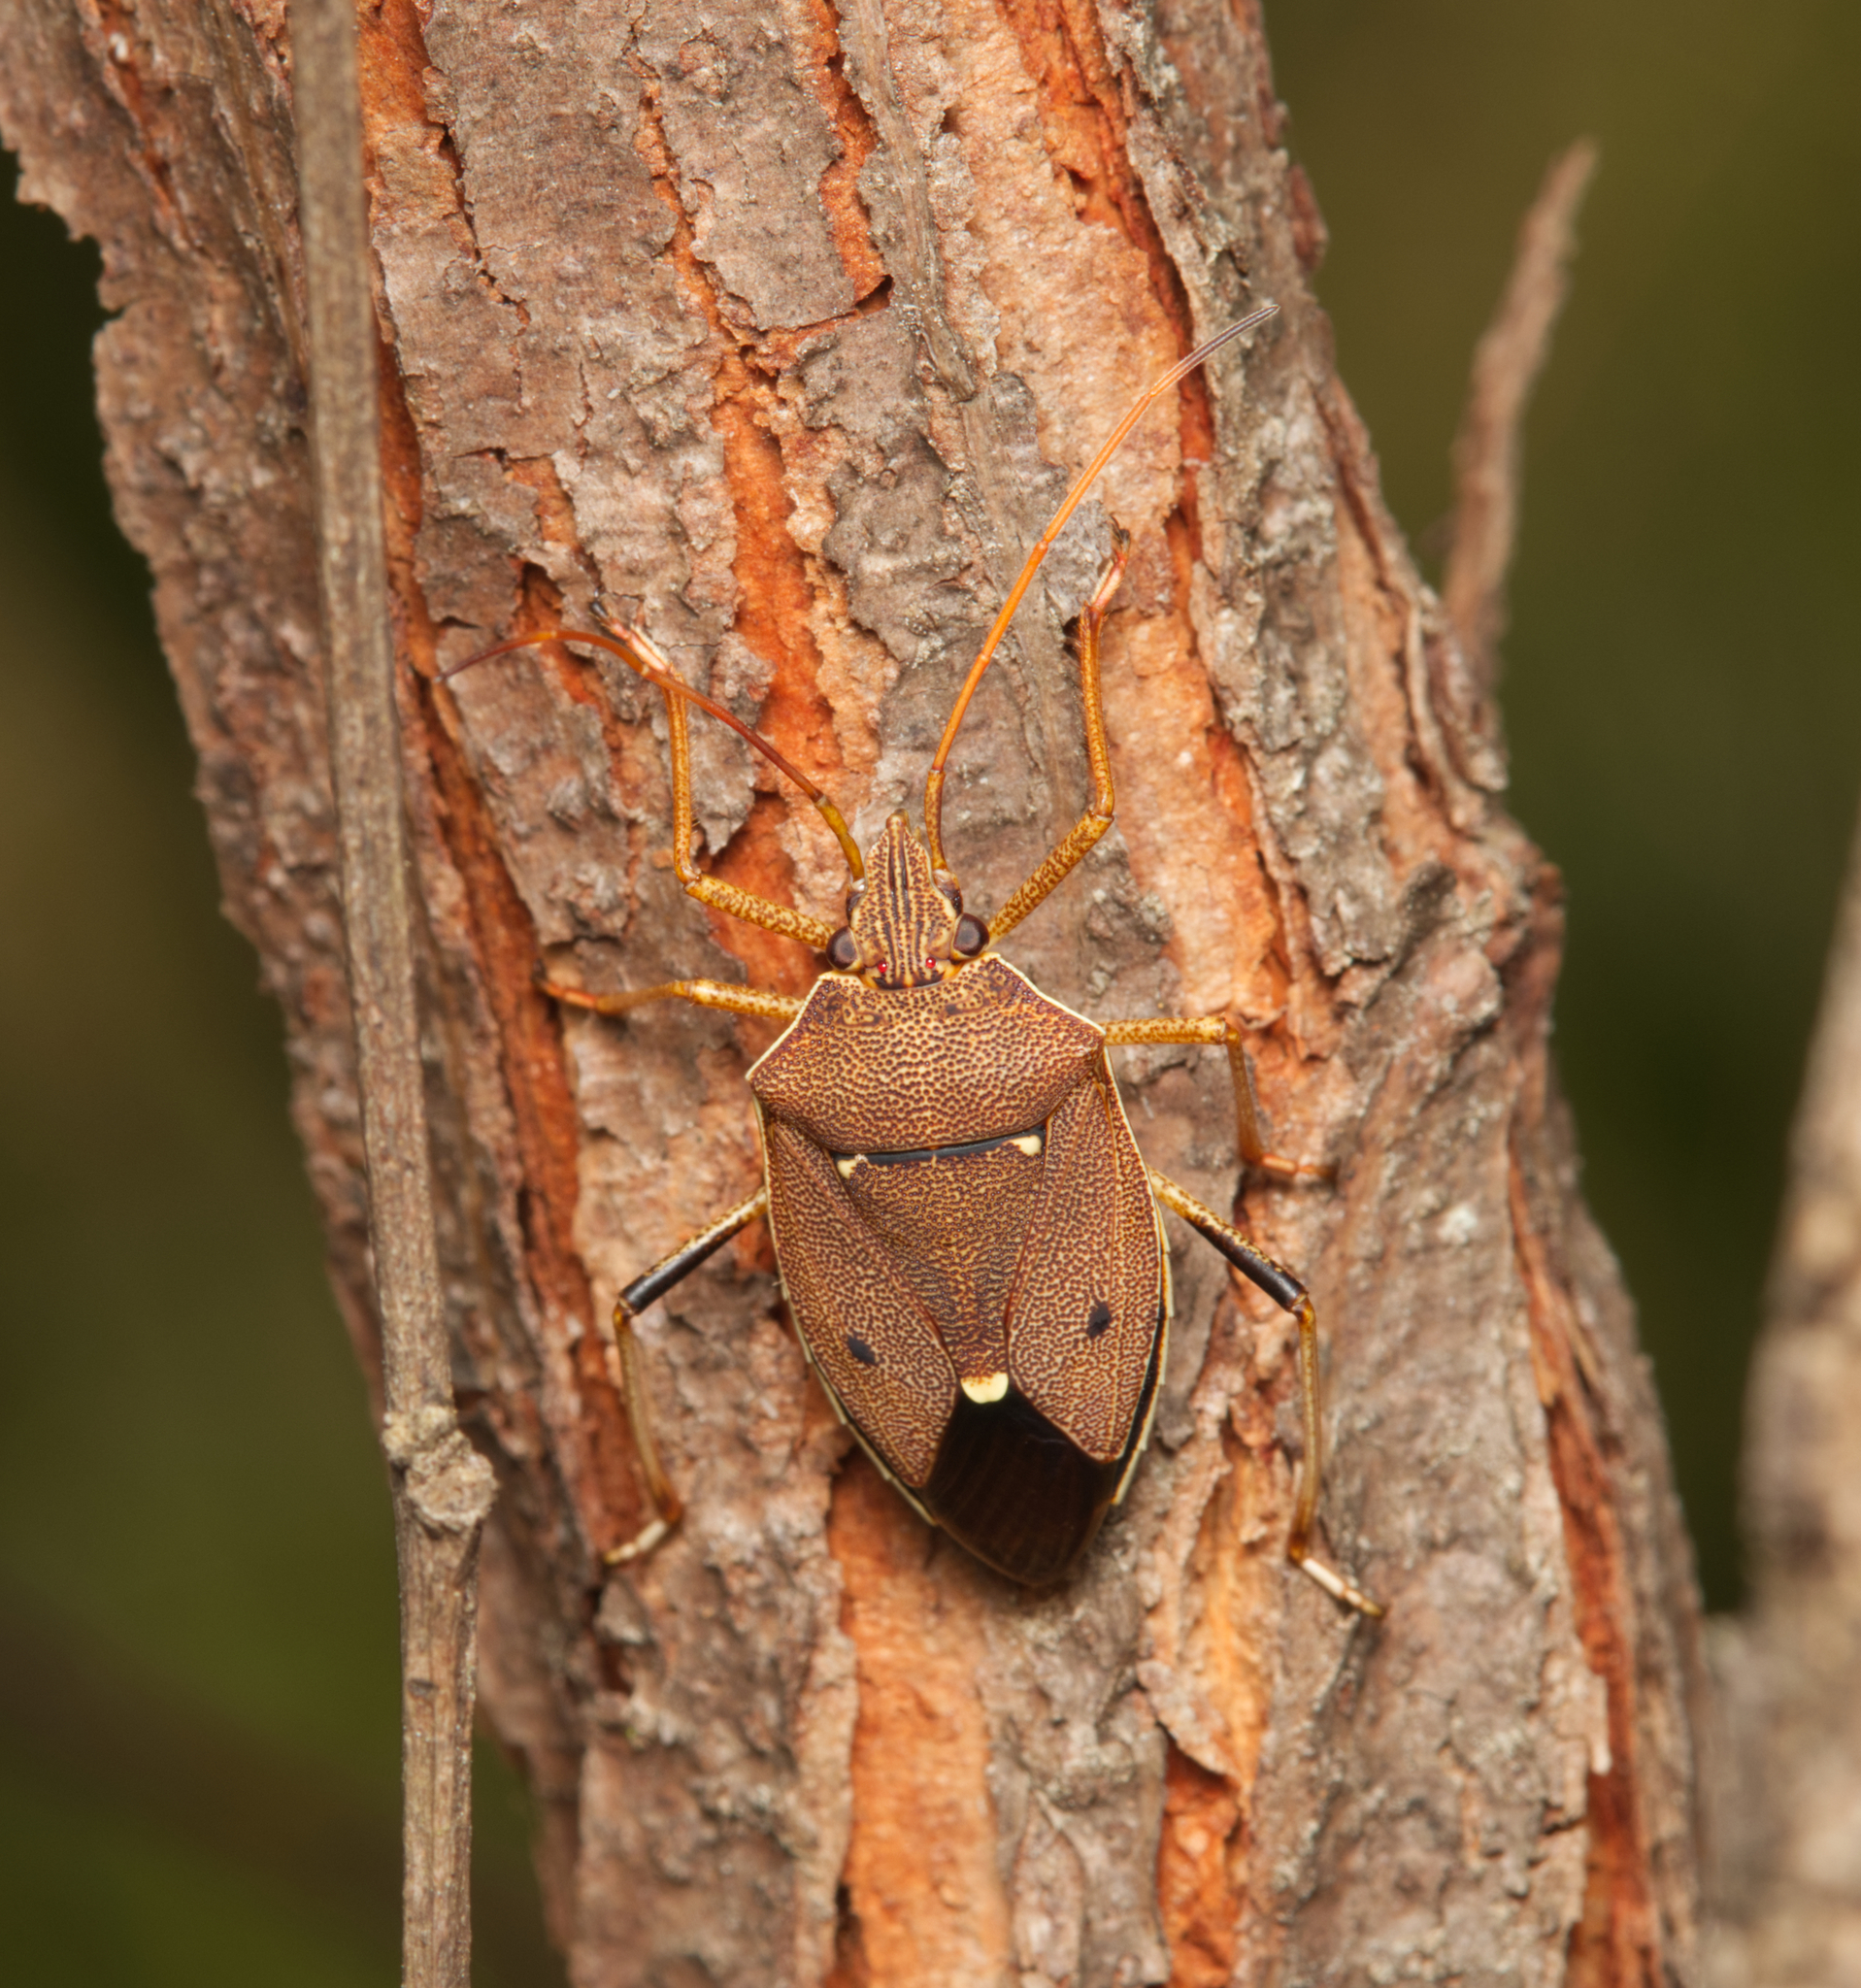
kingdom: Animalia
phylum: Arthropoda
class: Insecta
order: Hemiptera
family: Pentatomidae
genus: Poecilometis
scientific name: Poecilometis
